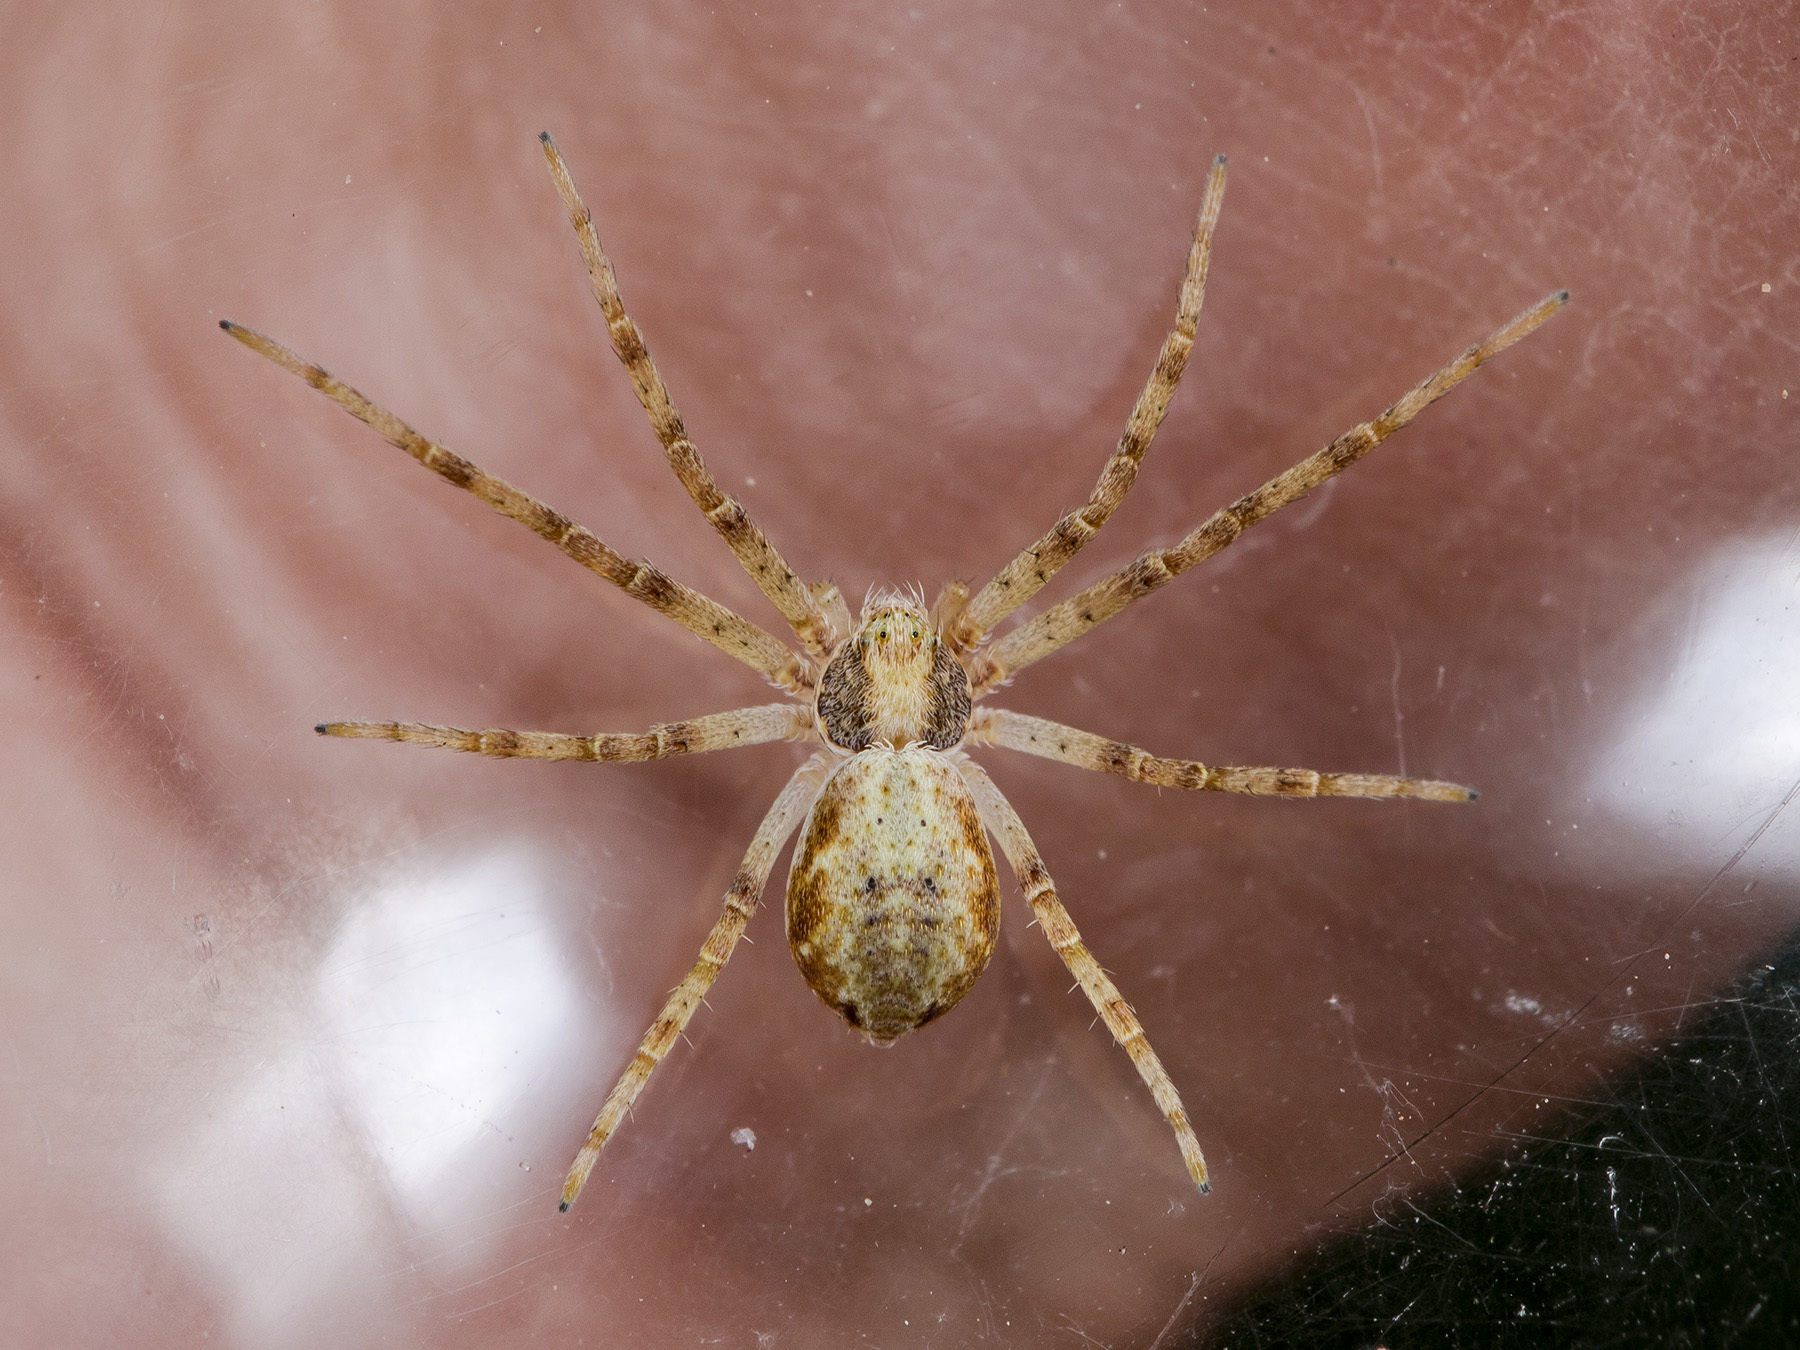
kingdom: Animalia
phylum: Arthropoda
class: Arachnida
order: Araneae
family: Philodromidae
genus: Philodromus
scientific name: Philodromus cespitum
